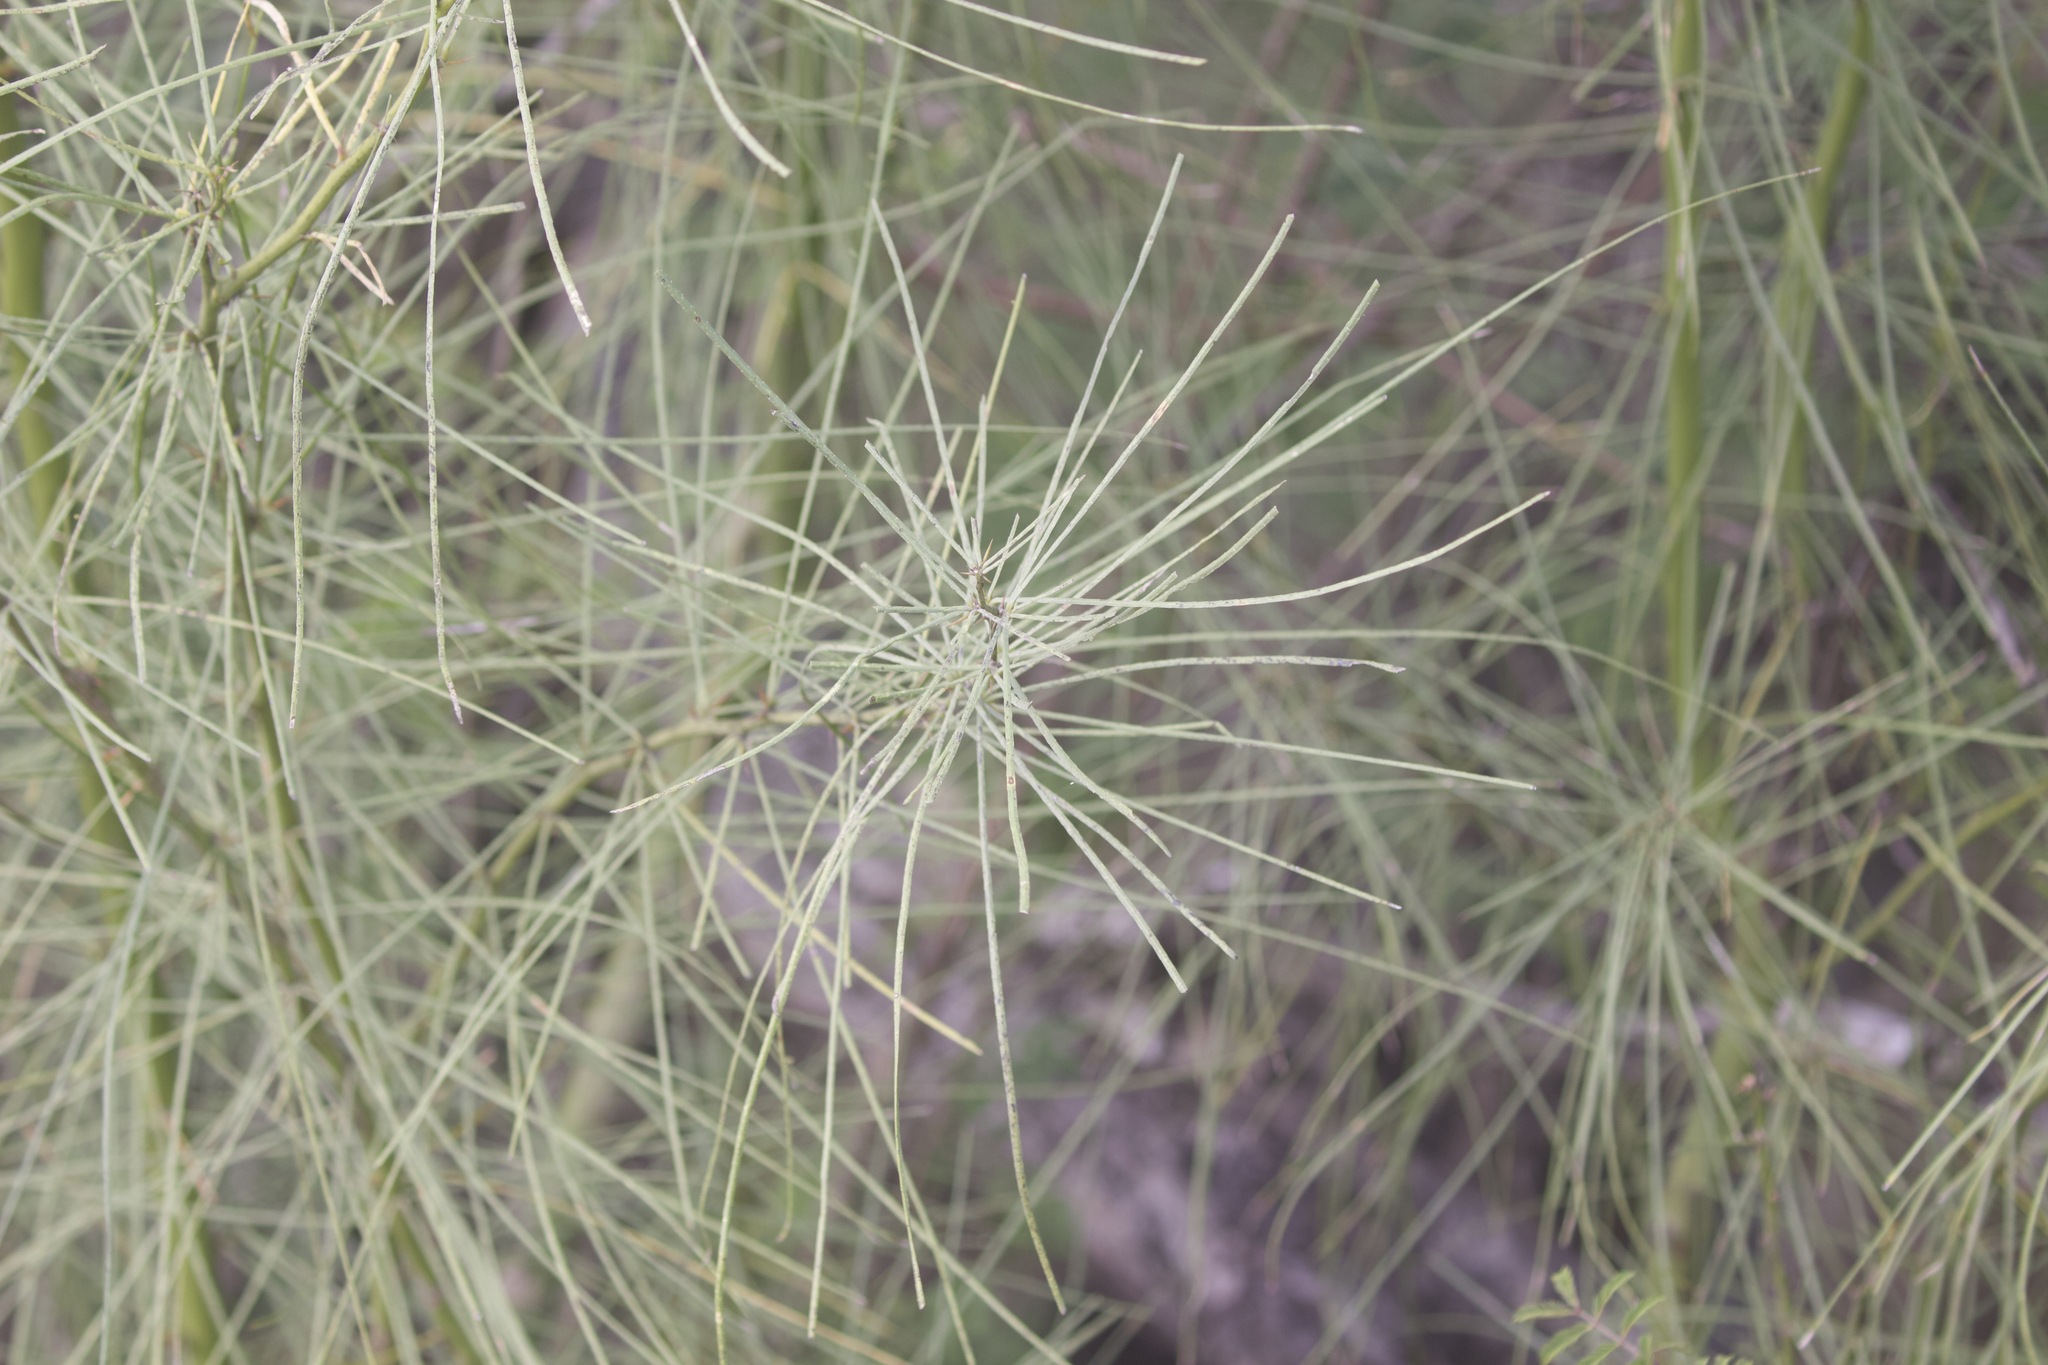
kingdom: Plantae
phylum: Tracheophyta
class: Magnoliopsida
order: Fabales
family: Fabaceae
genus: Parkinsonia
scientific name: Parkinsonia aculeata
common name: Jerusalem thorn
